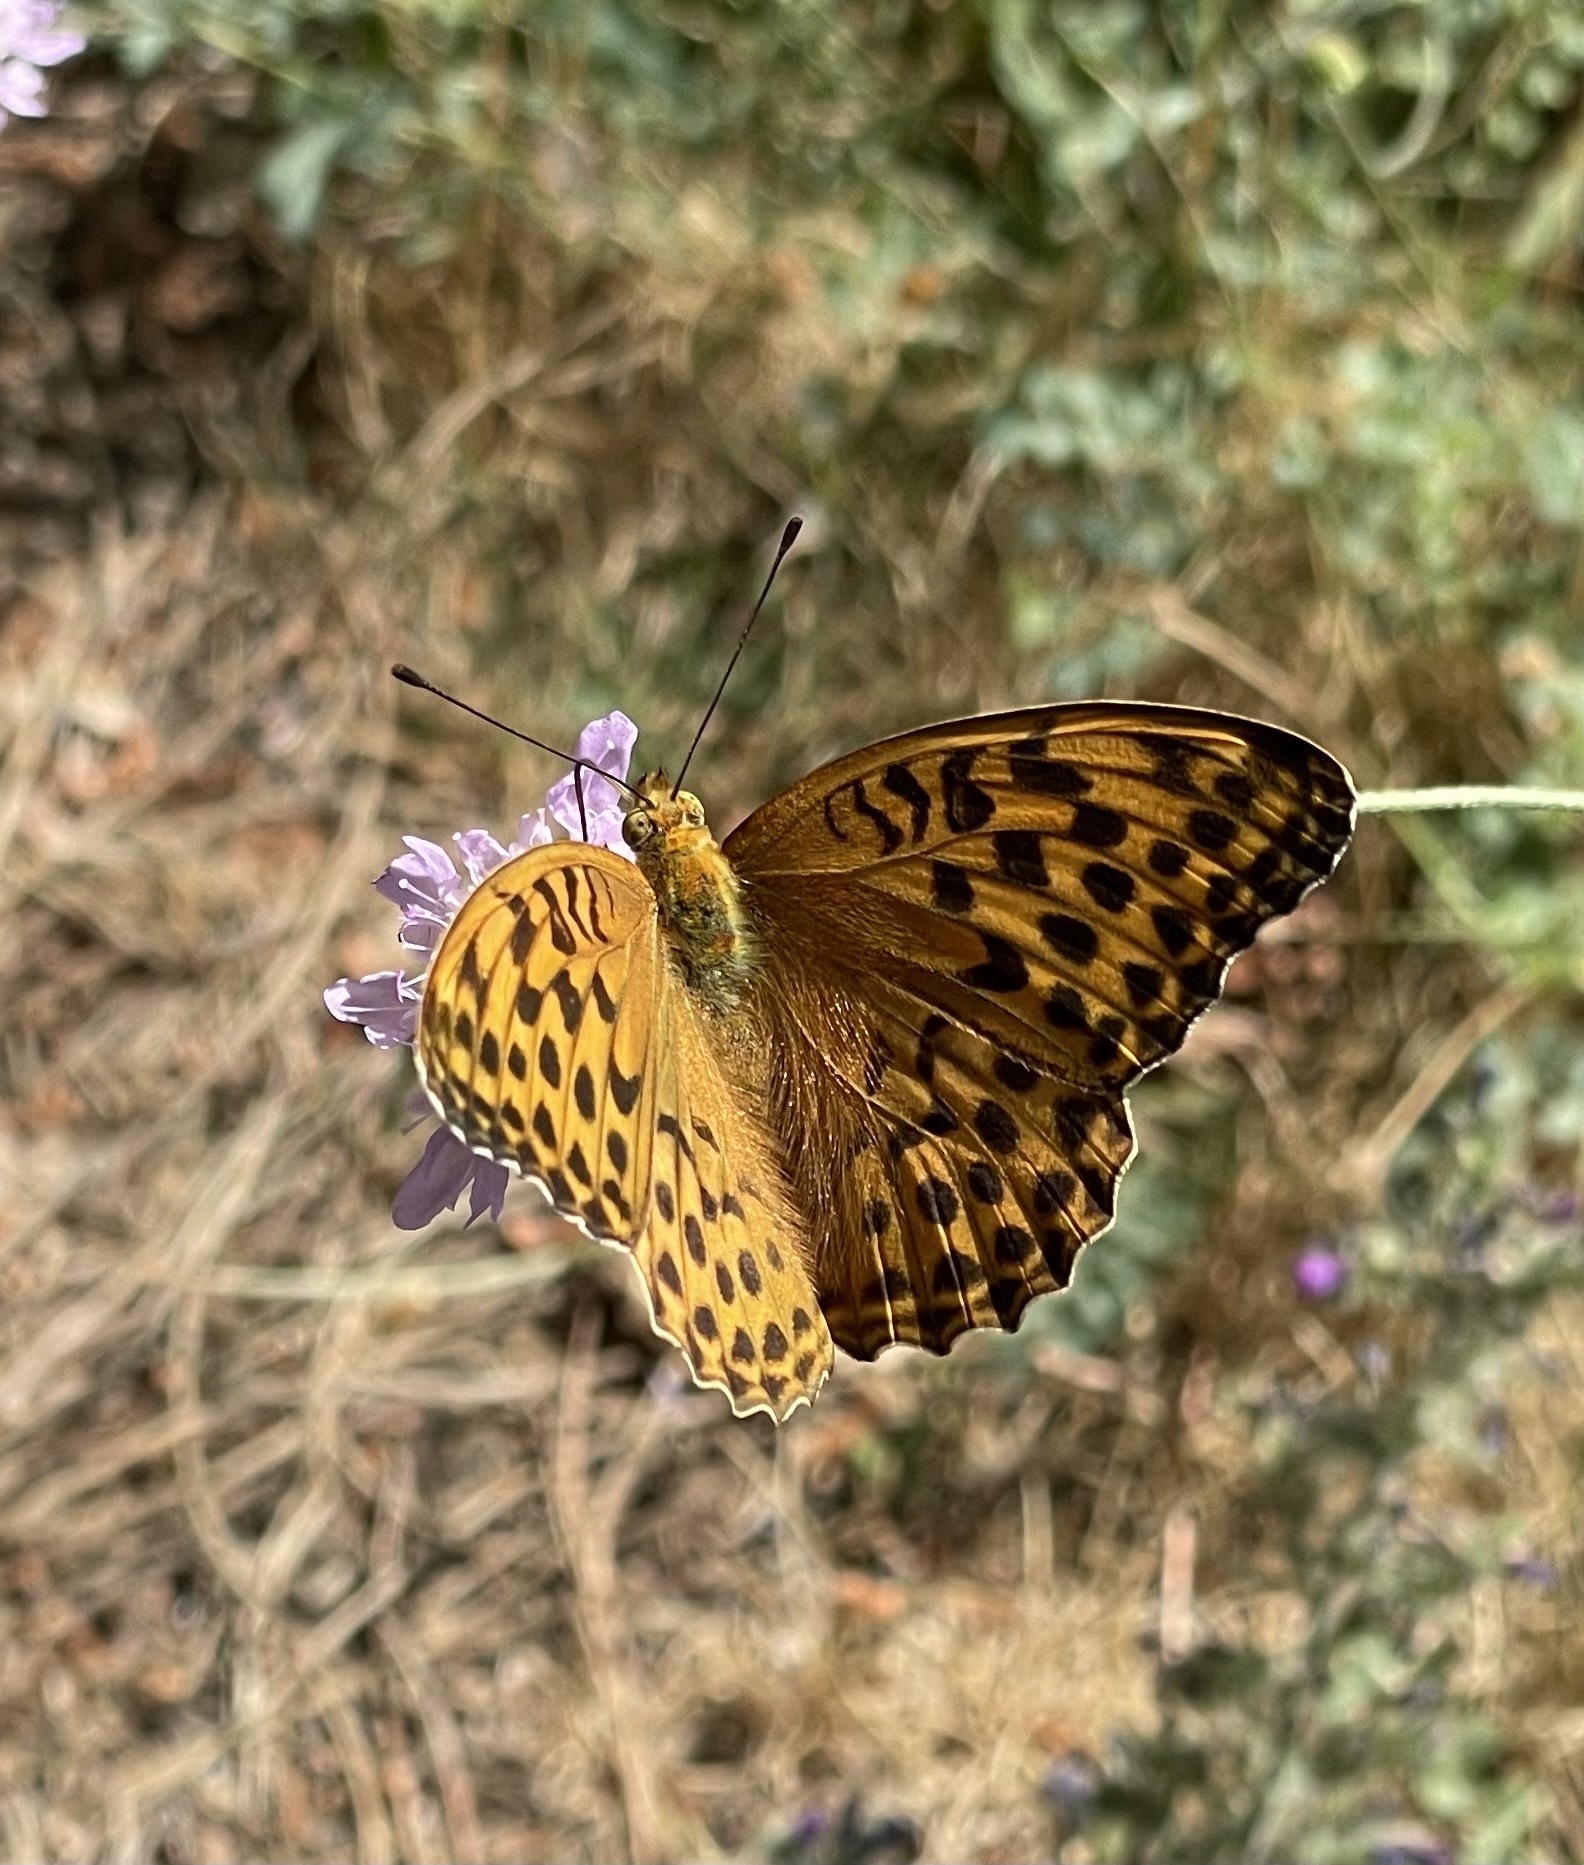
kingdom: Animalia
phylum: Arthropoda
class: Insecta
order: Lepidoptera
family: Nymphalidae
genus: Argynnis
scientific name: Argynnis paphia
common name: Silver-washed fritillary
